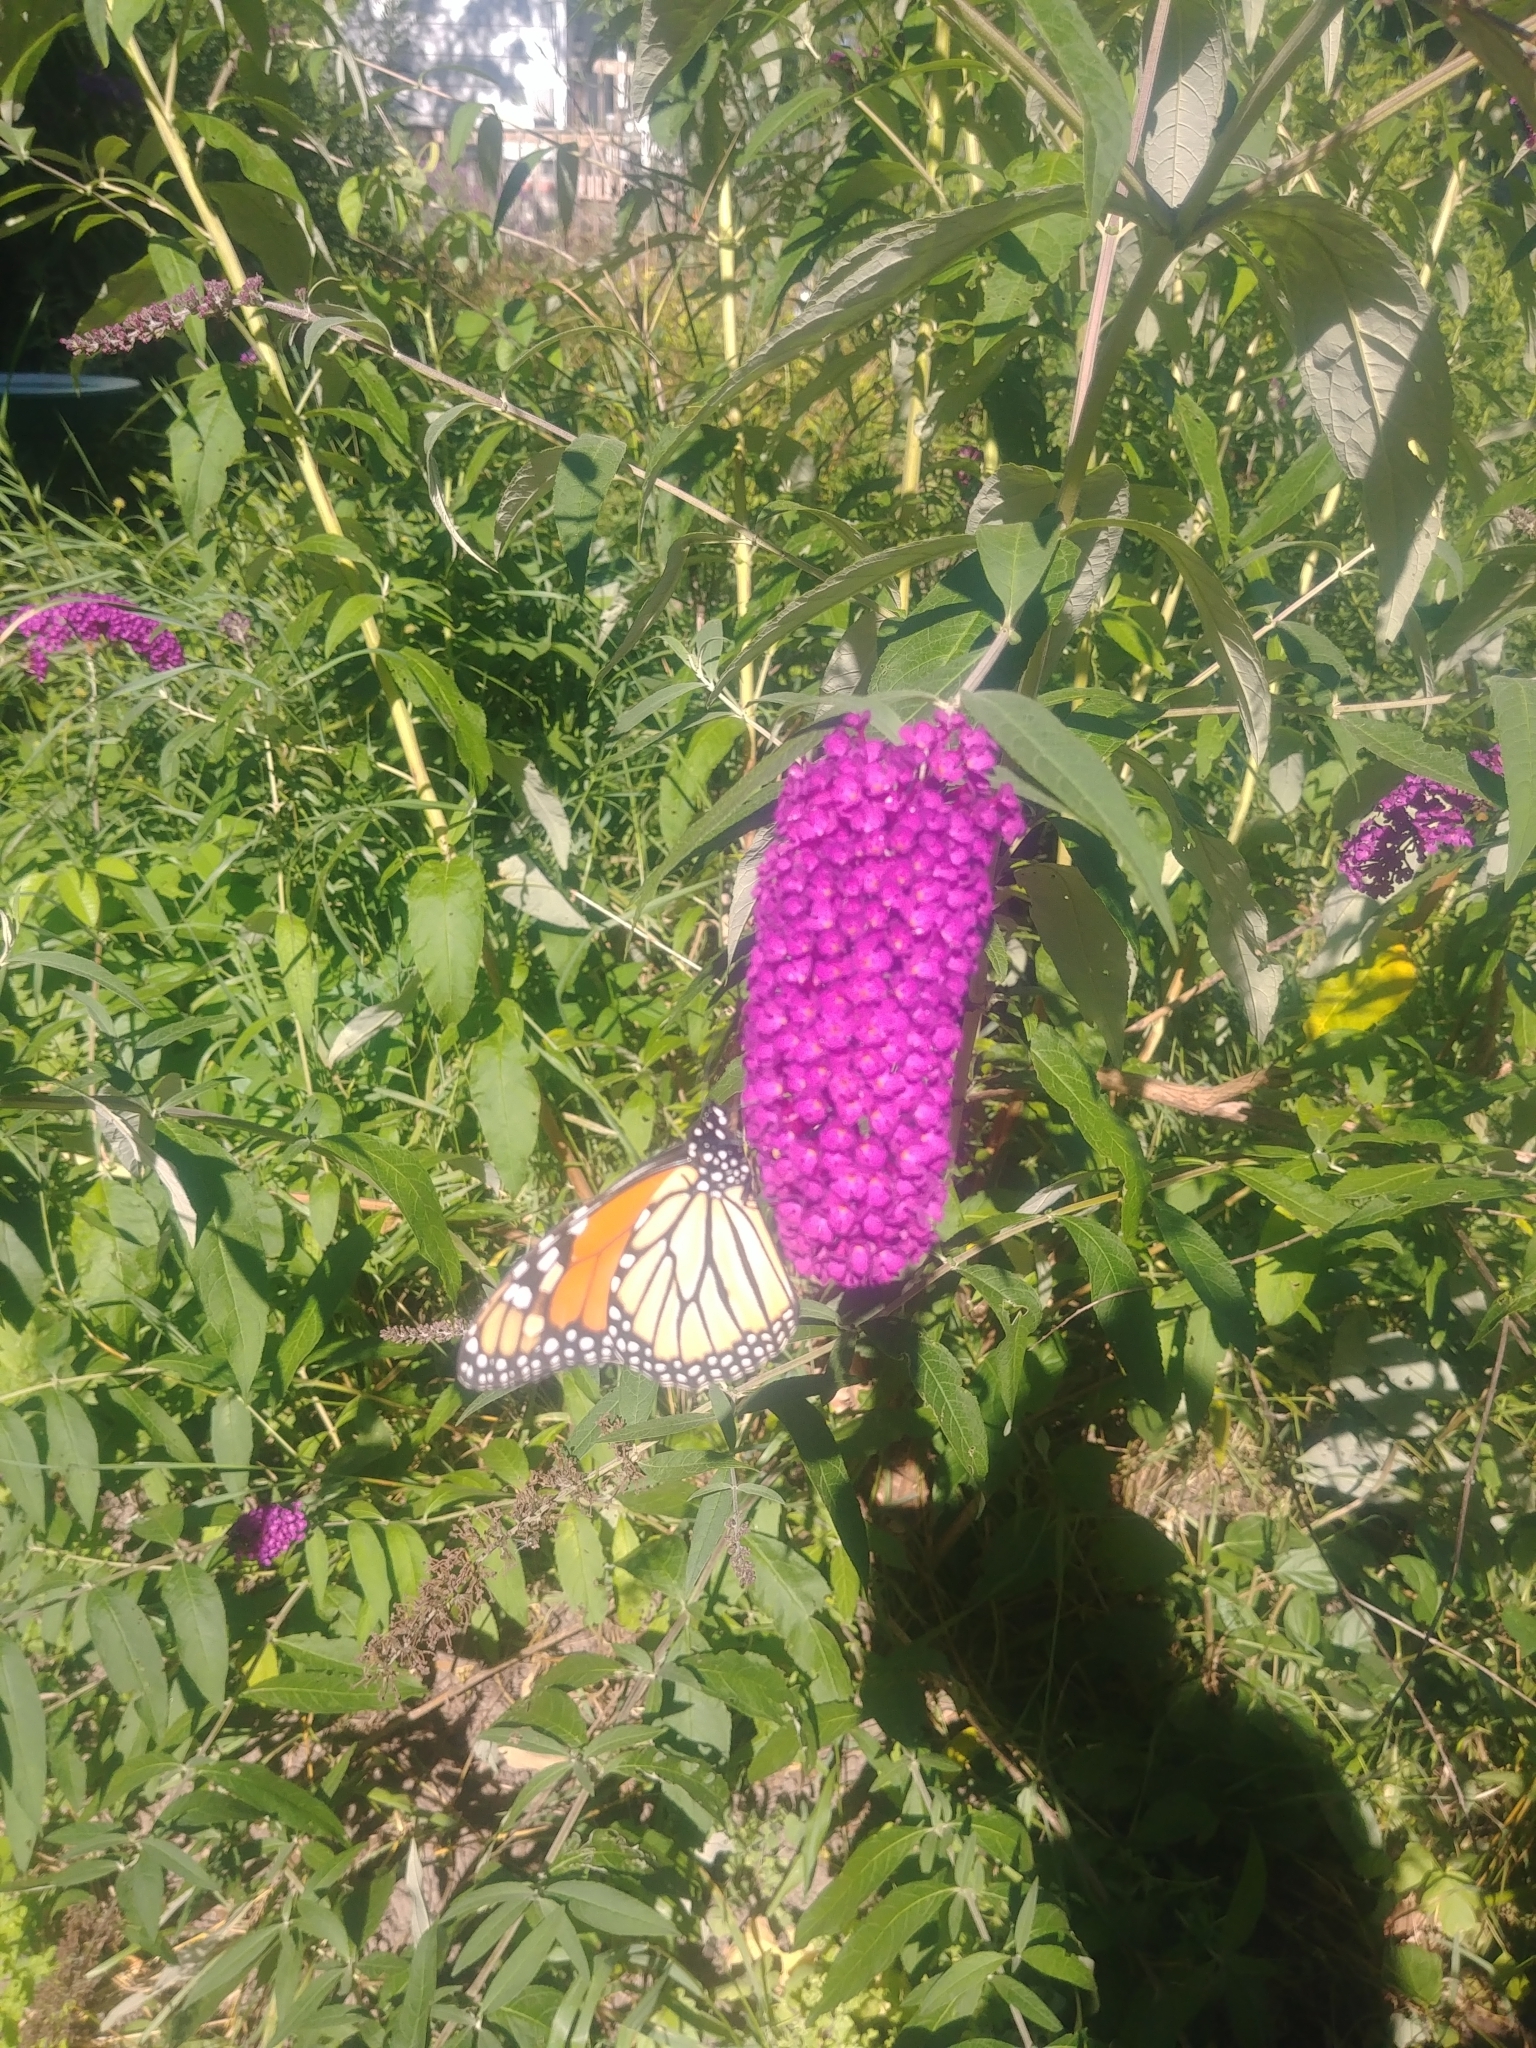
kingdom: Animalia
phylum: Arthropoda
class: Insecta
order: Lepidoptera
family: Nymphalidae
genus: Danaus
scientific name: Danaus plexippus
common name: Monarch
